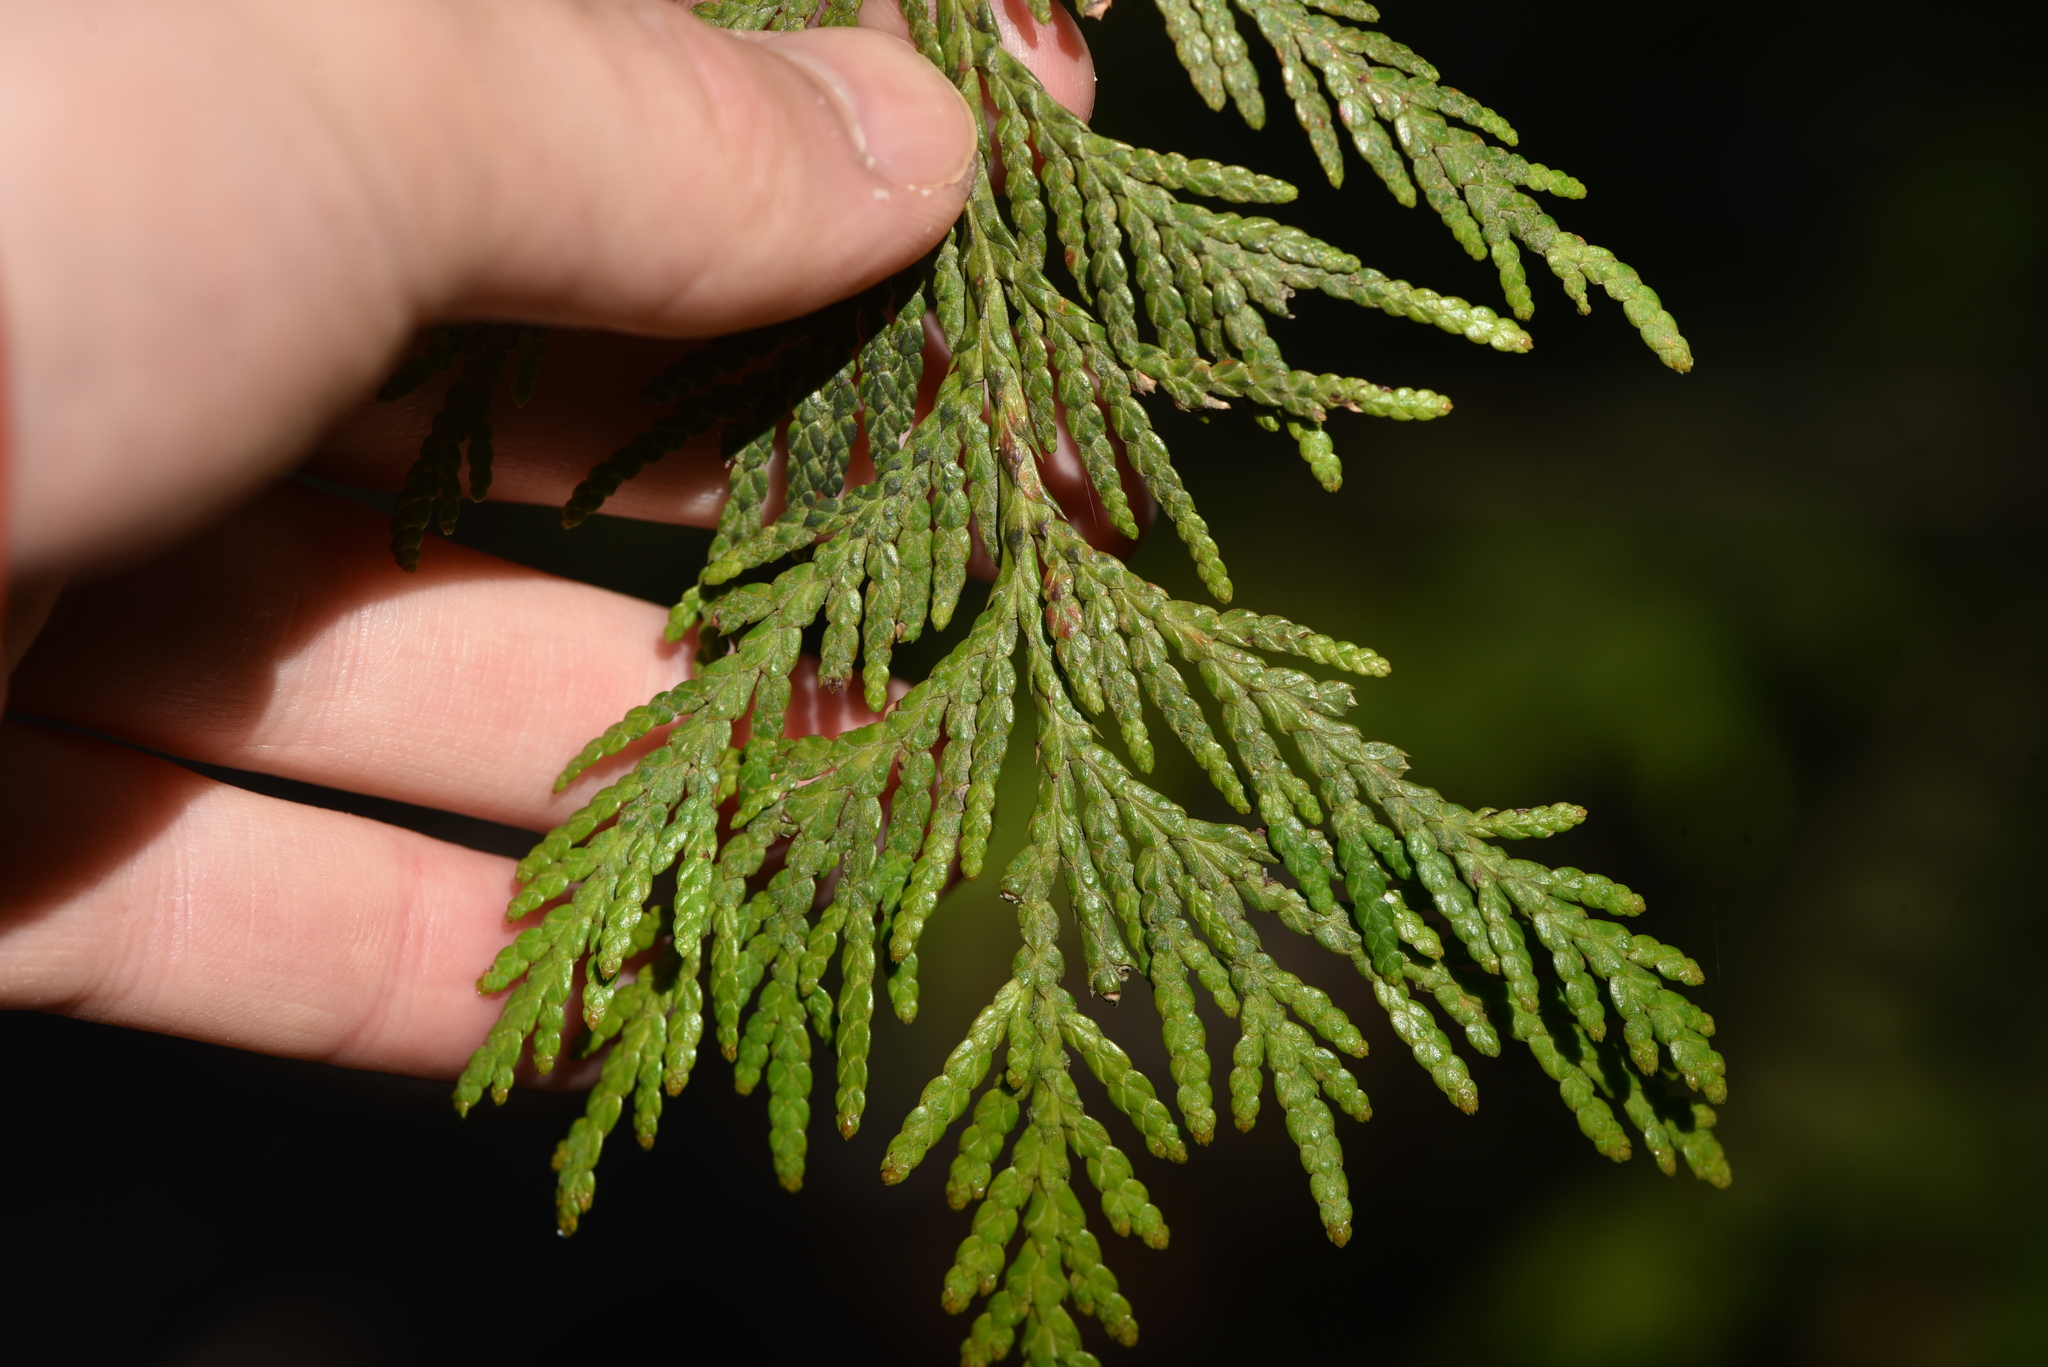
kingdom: Plantae
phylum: Tracheophyta
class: Pinopsida
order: Pinales
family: Cupressaceae
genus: Thuja
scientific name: Thuja plicata
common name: Western red-cedar
